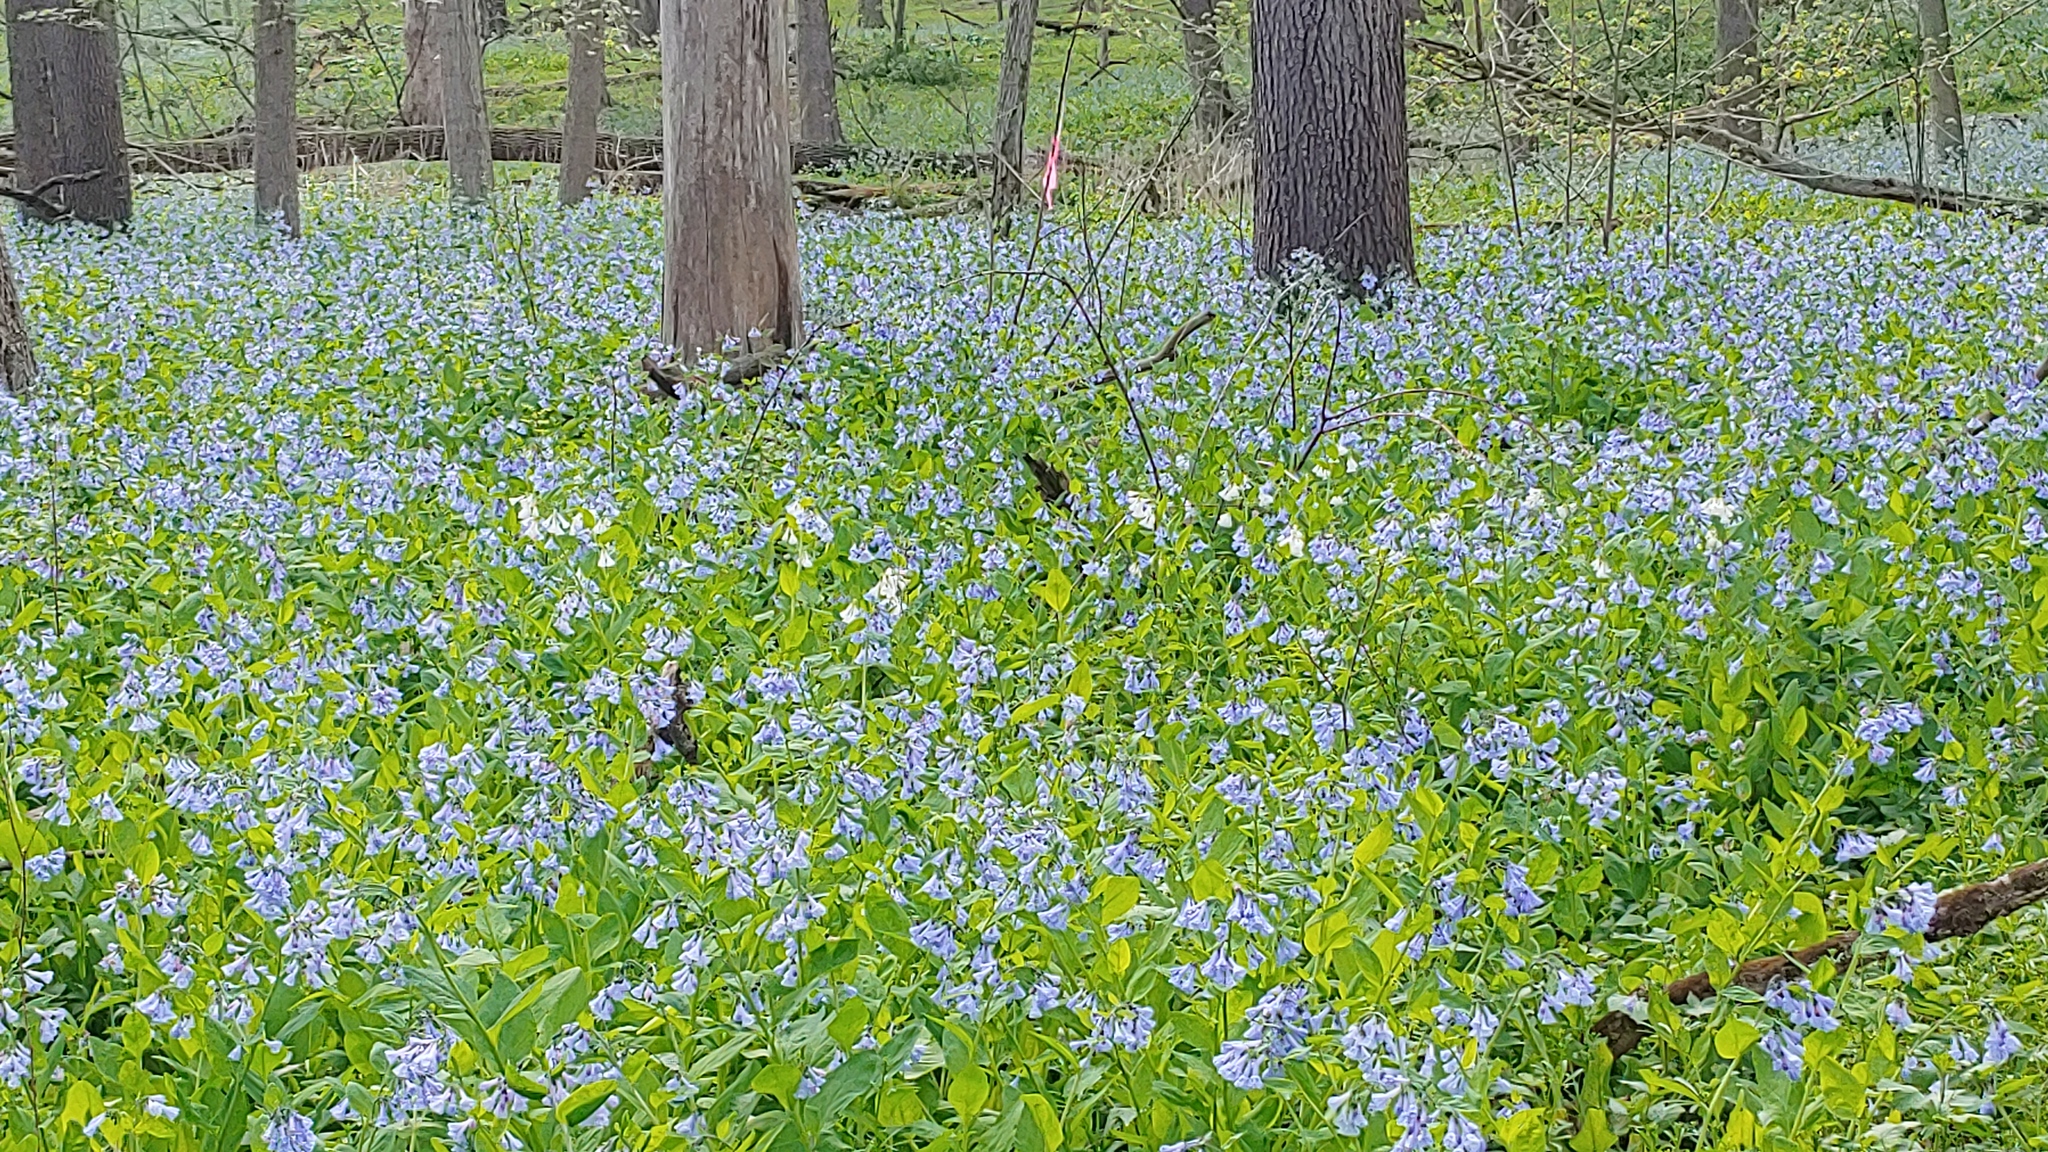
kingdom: Plantae
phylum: Tracheophyta
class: Magnoliopsida
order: Boraginales
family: Boraginaceae
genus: Mertensia
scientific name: Mertensia virginica
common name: Virginia bluebells
